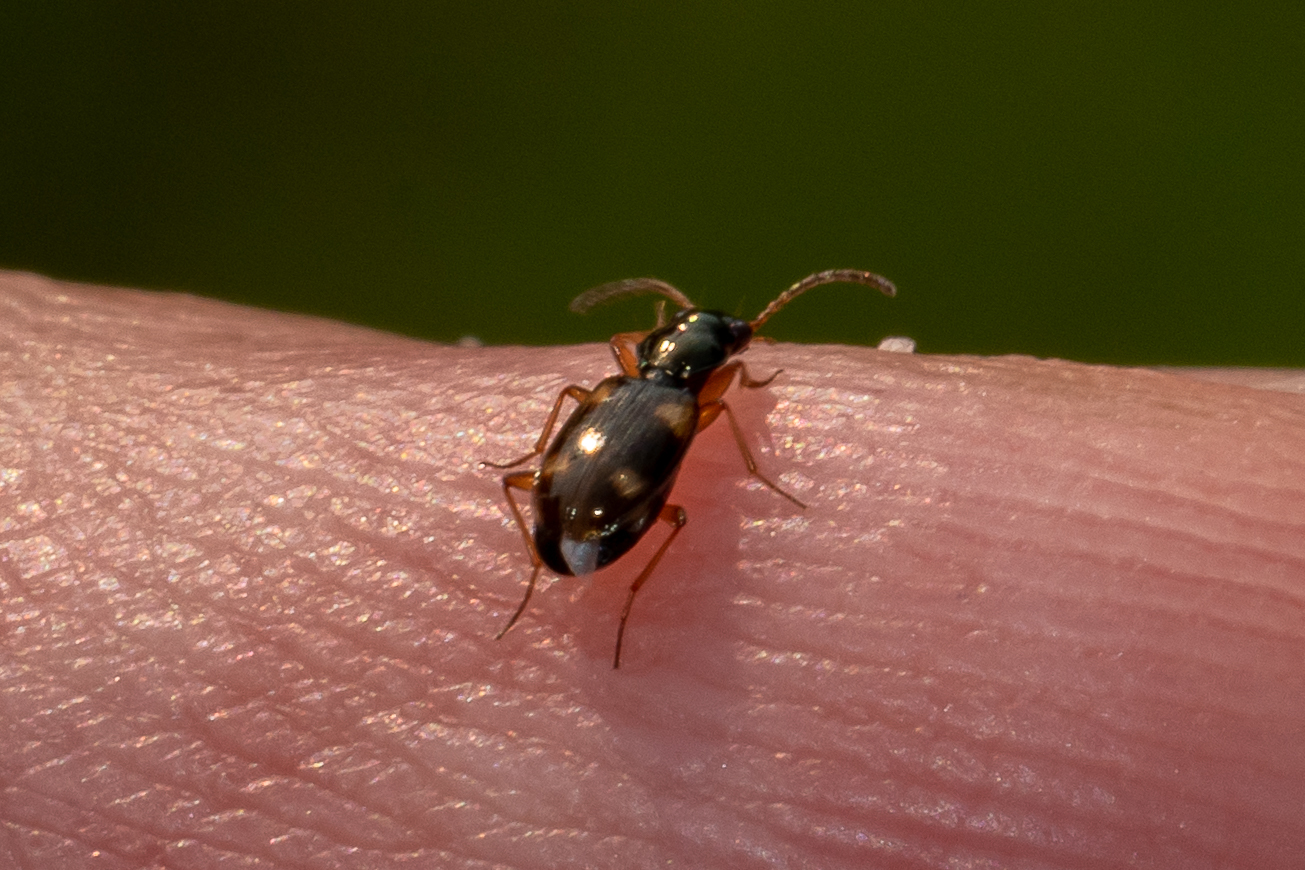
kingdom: Animalia
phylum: Arthropoda
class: Insecta
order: Coleoptera
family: Carabidae
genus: Bembidion
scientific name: Bembidion quadrimaculatum
